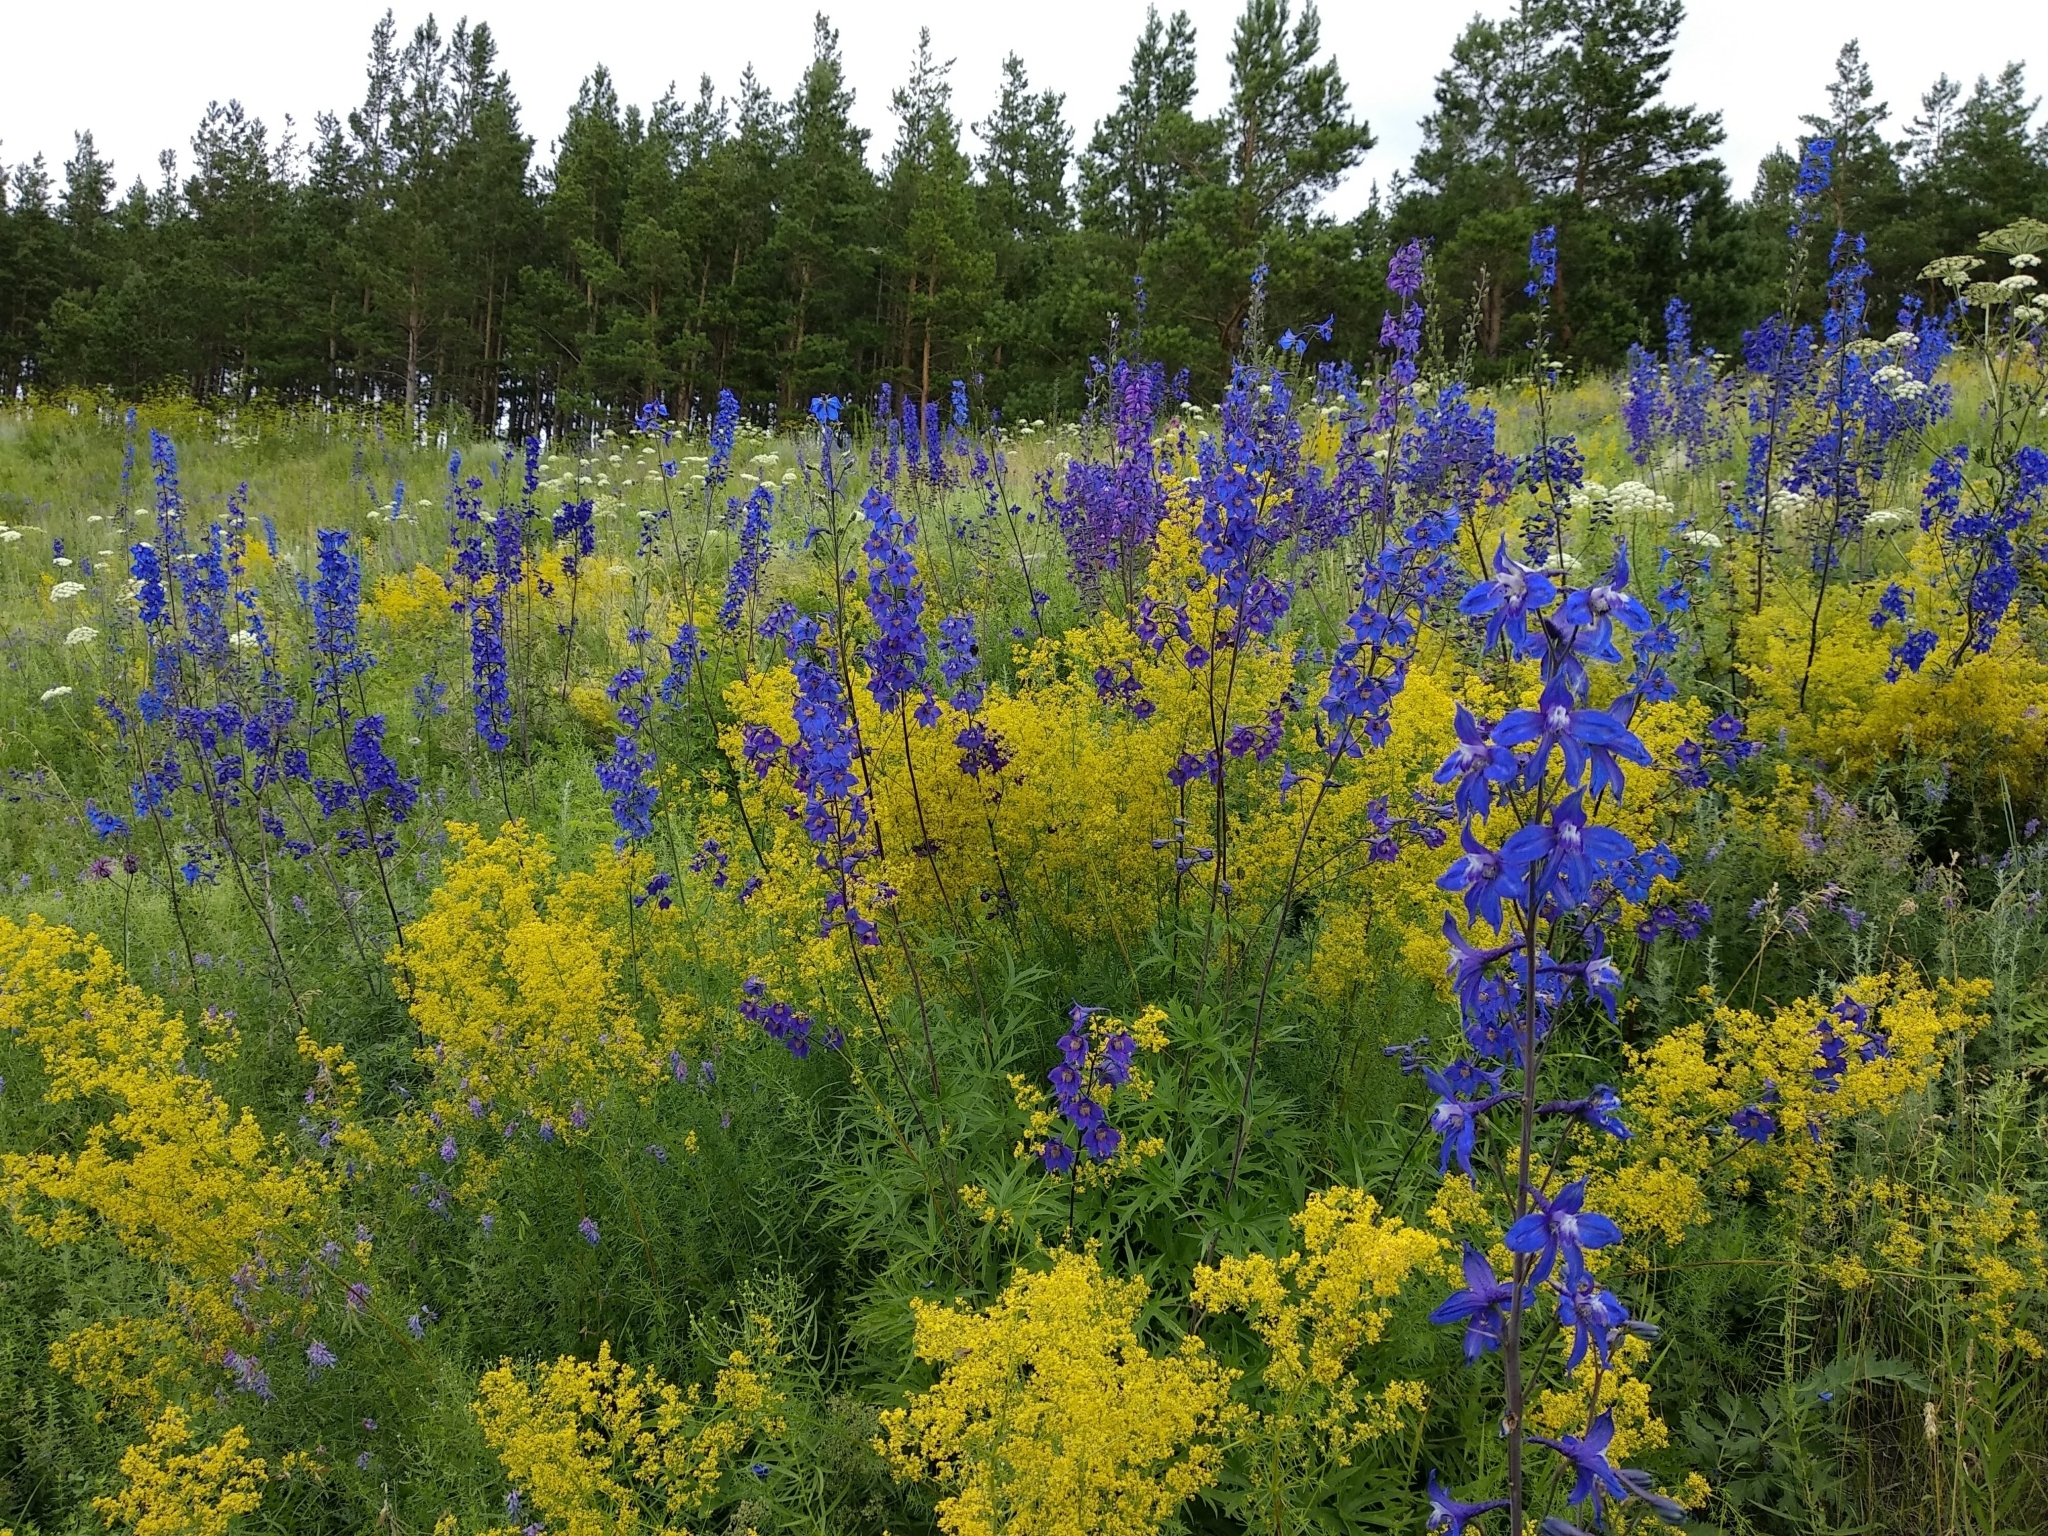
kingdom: Plantae
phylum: Tracheophyta
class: Magnoliopsida
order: Ranunculales
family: Ranunculaceae
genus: Delphinium
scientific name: Delphinium dictyocarpum
